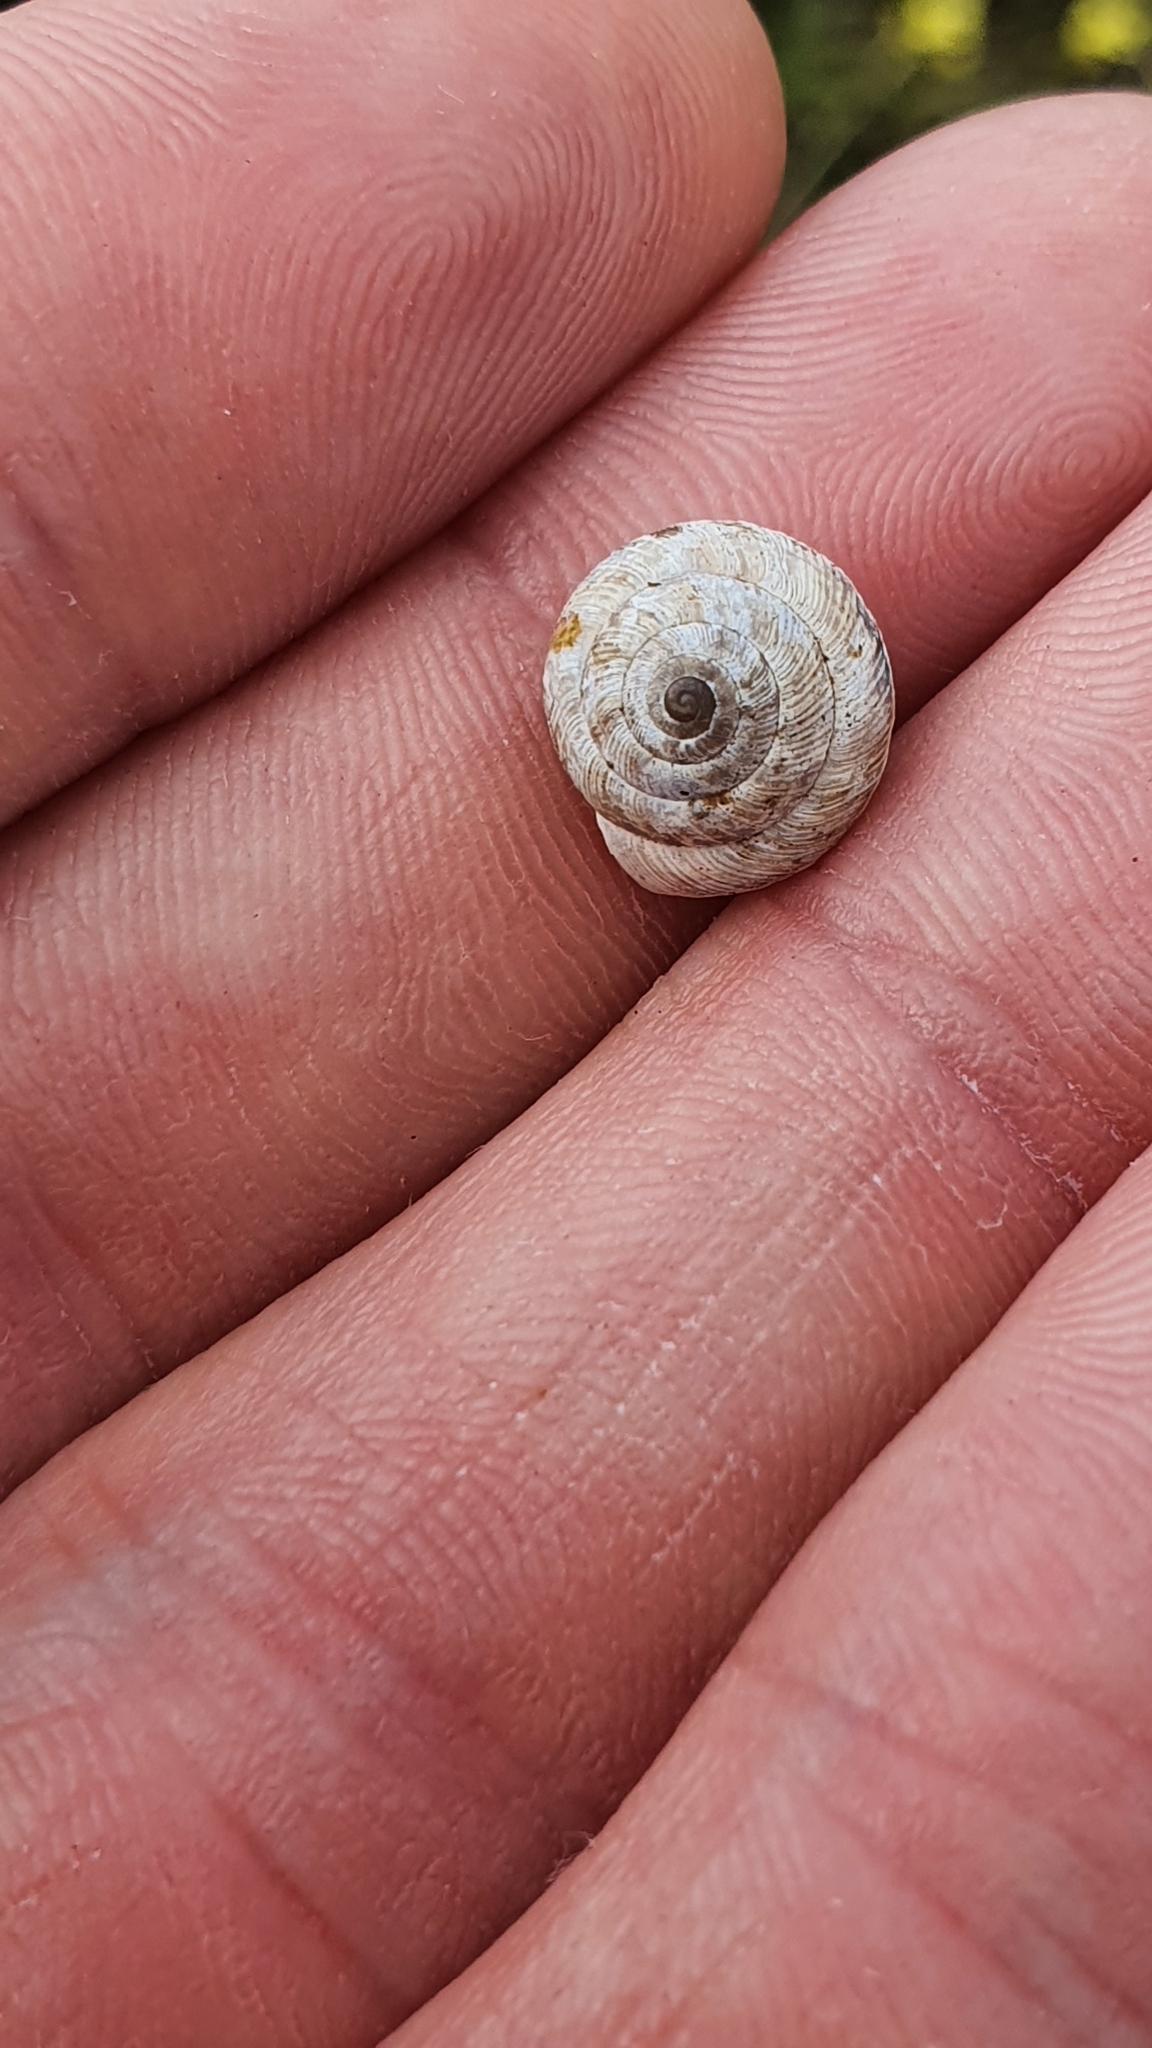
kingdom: Animalia
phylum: Mollusca
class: Gastropoda
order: Stylommatophora
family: Geomitridae
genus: Xeroplexa
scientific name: Xeroplexa intersecta
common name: Wrinkled snail
